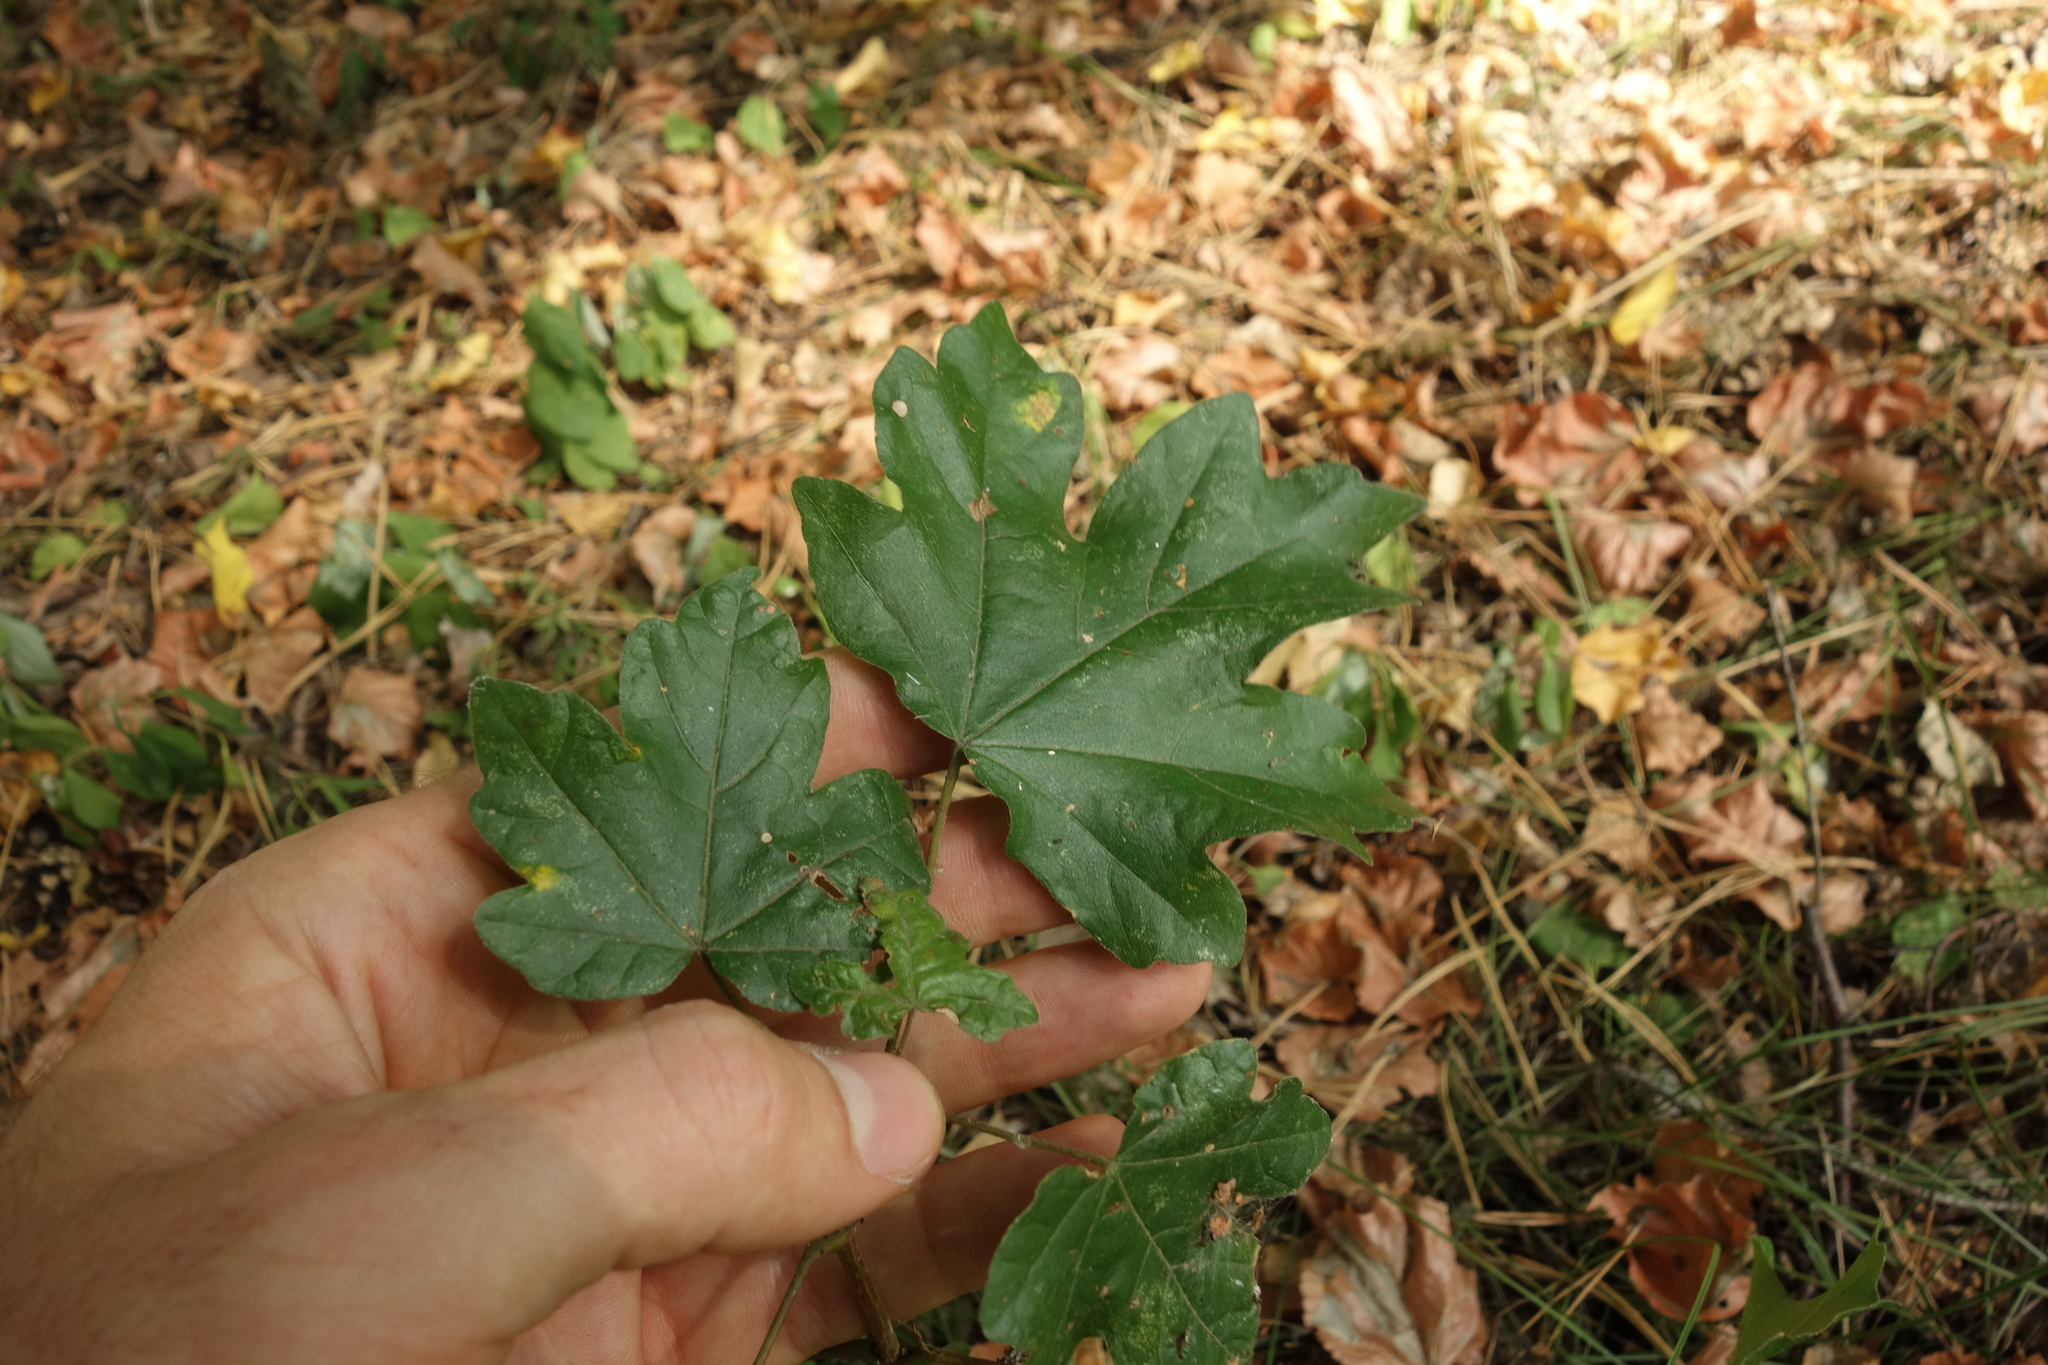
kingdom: Plantae
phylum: Tracheophyta
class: Magnoliopsida
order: Sapindales
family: Sapindaceae
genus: Acer
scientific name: Acer campestre
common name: Field maple
